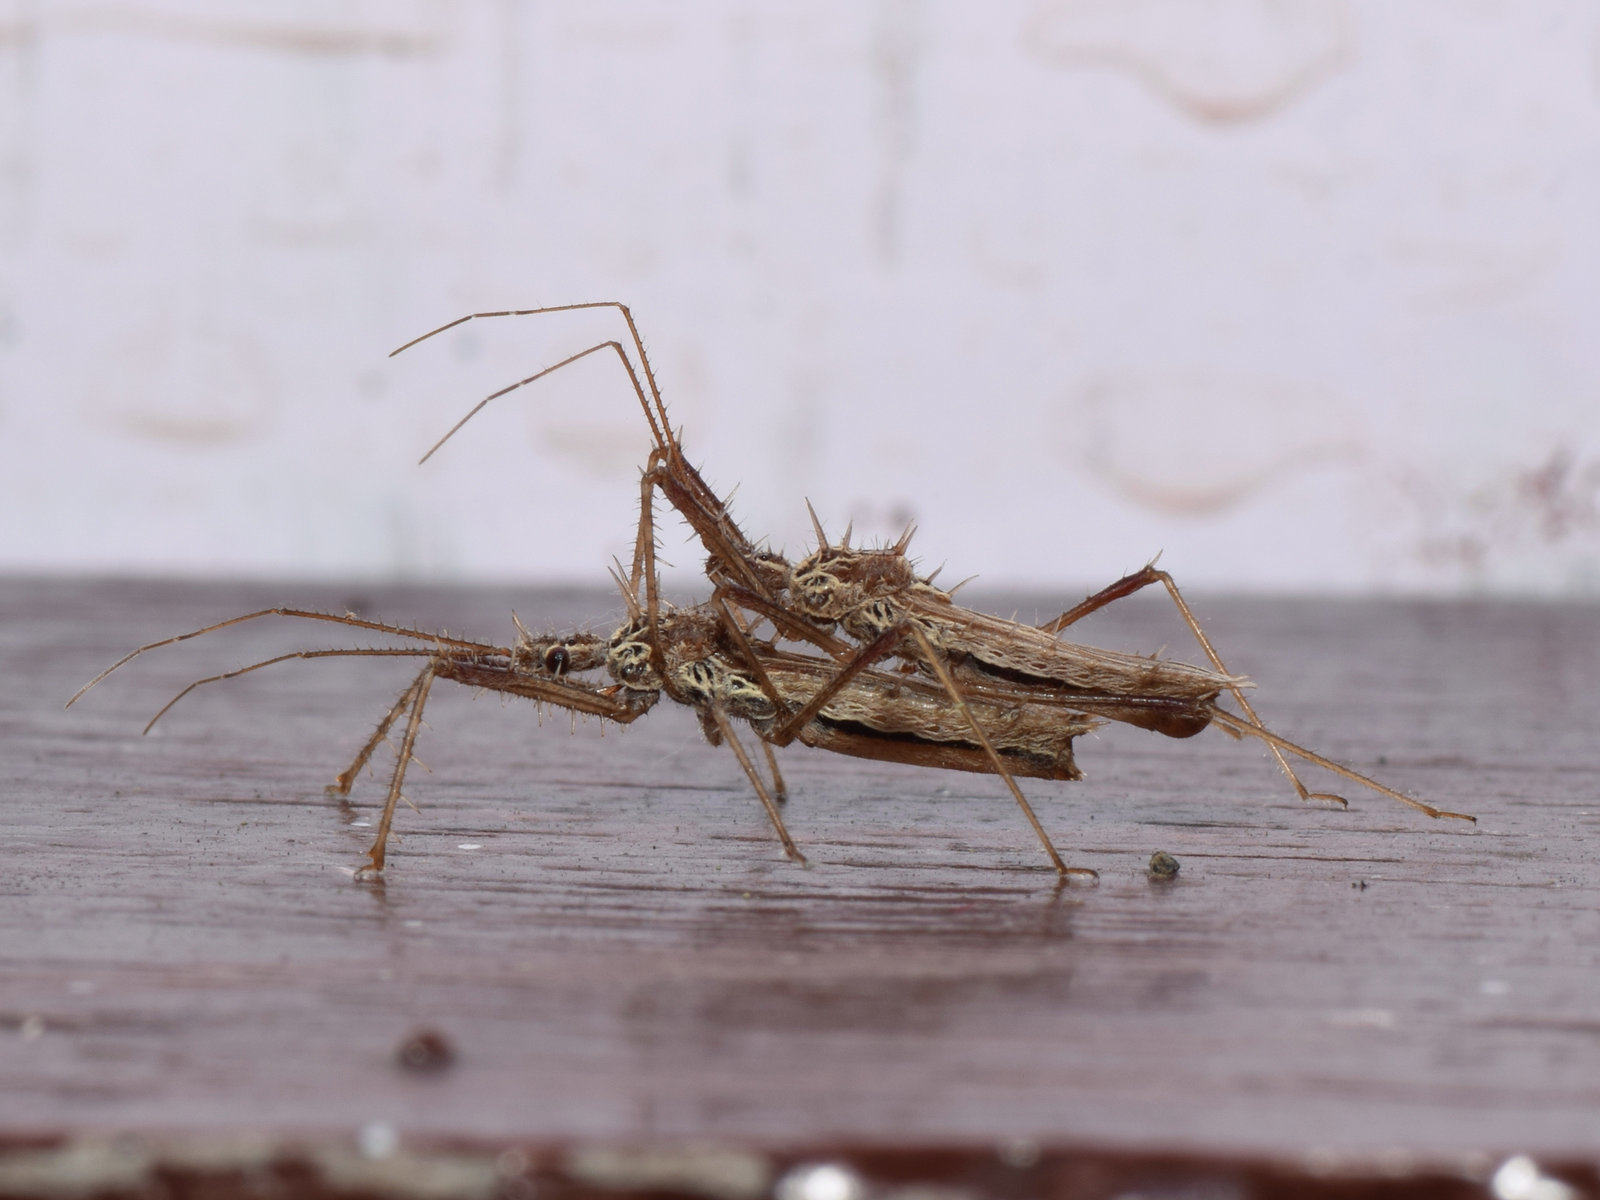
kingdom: Animalia
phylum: Arthropoda
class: Insecta
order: Hemiptera
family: Reduviidae
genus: Polididus
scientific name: Polididus armatissimus
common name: Assassin bug
